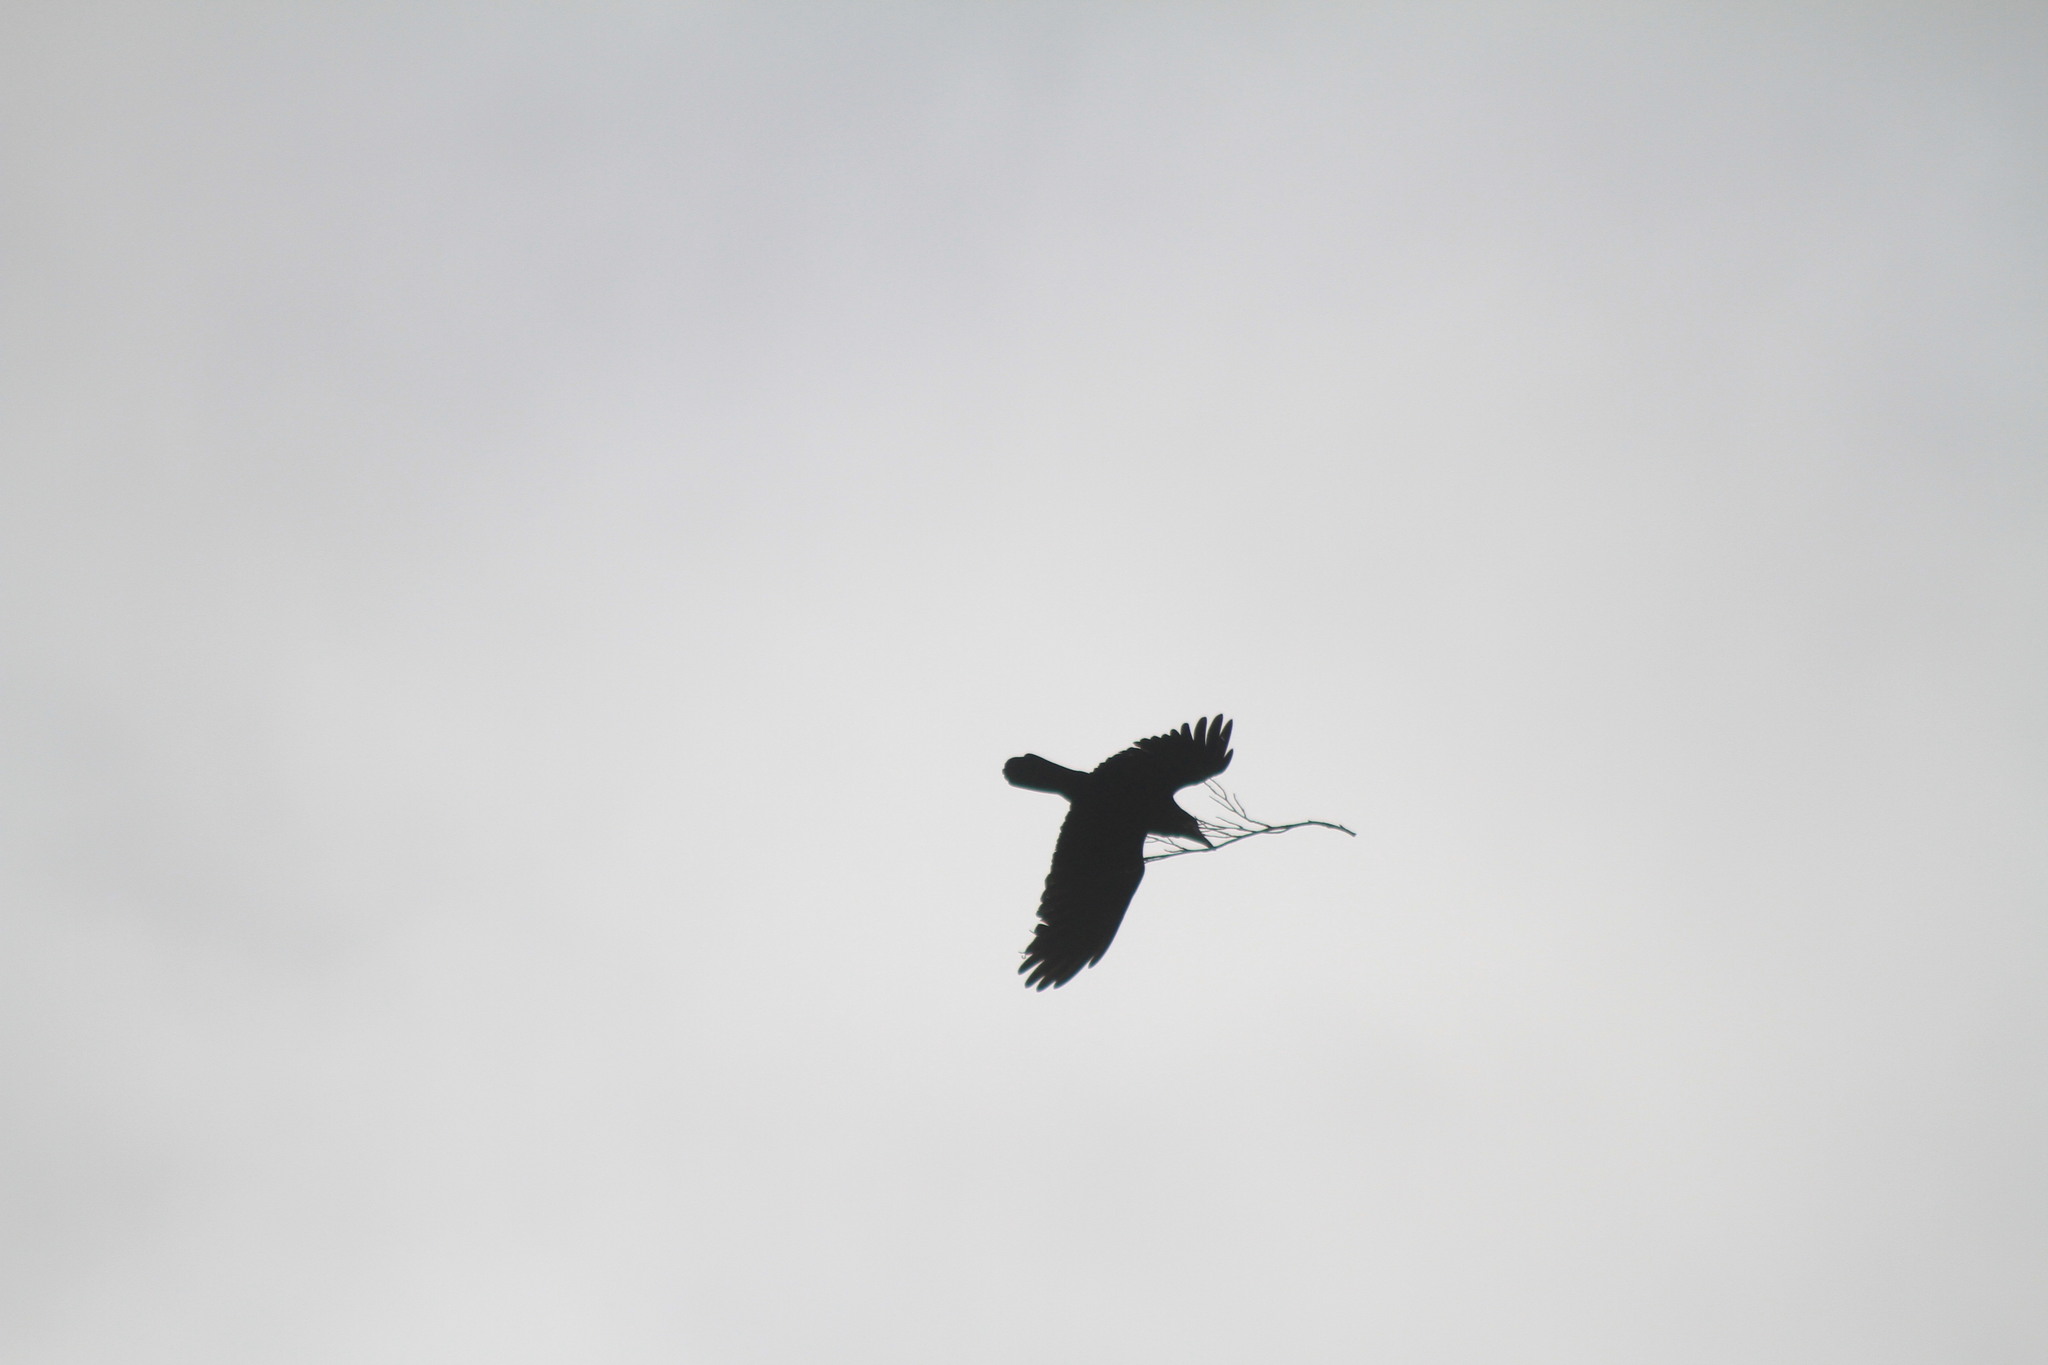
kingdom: Animalia
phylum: Chordata
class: Aves
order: Passeriformes
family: Corvidae
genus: Corvus
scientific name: Corvus frugilegus
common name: Rook
